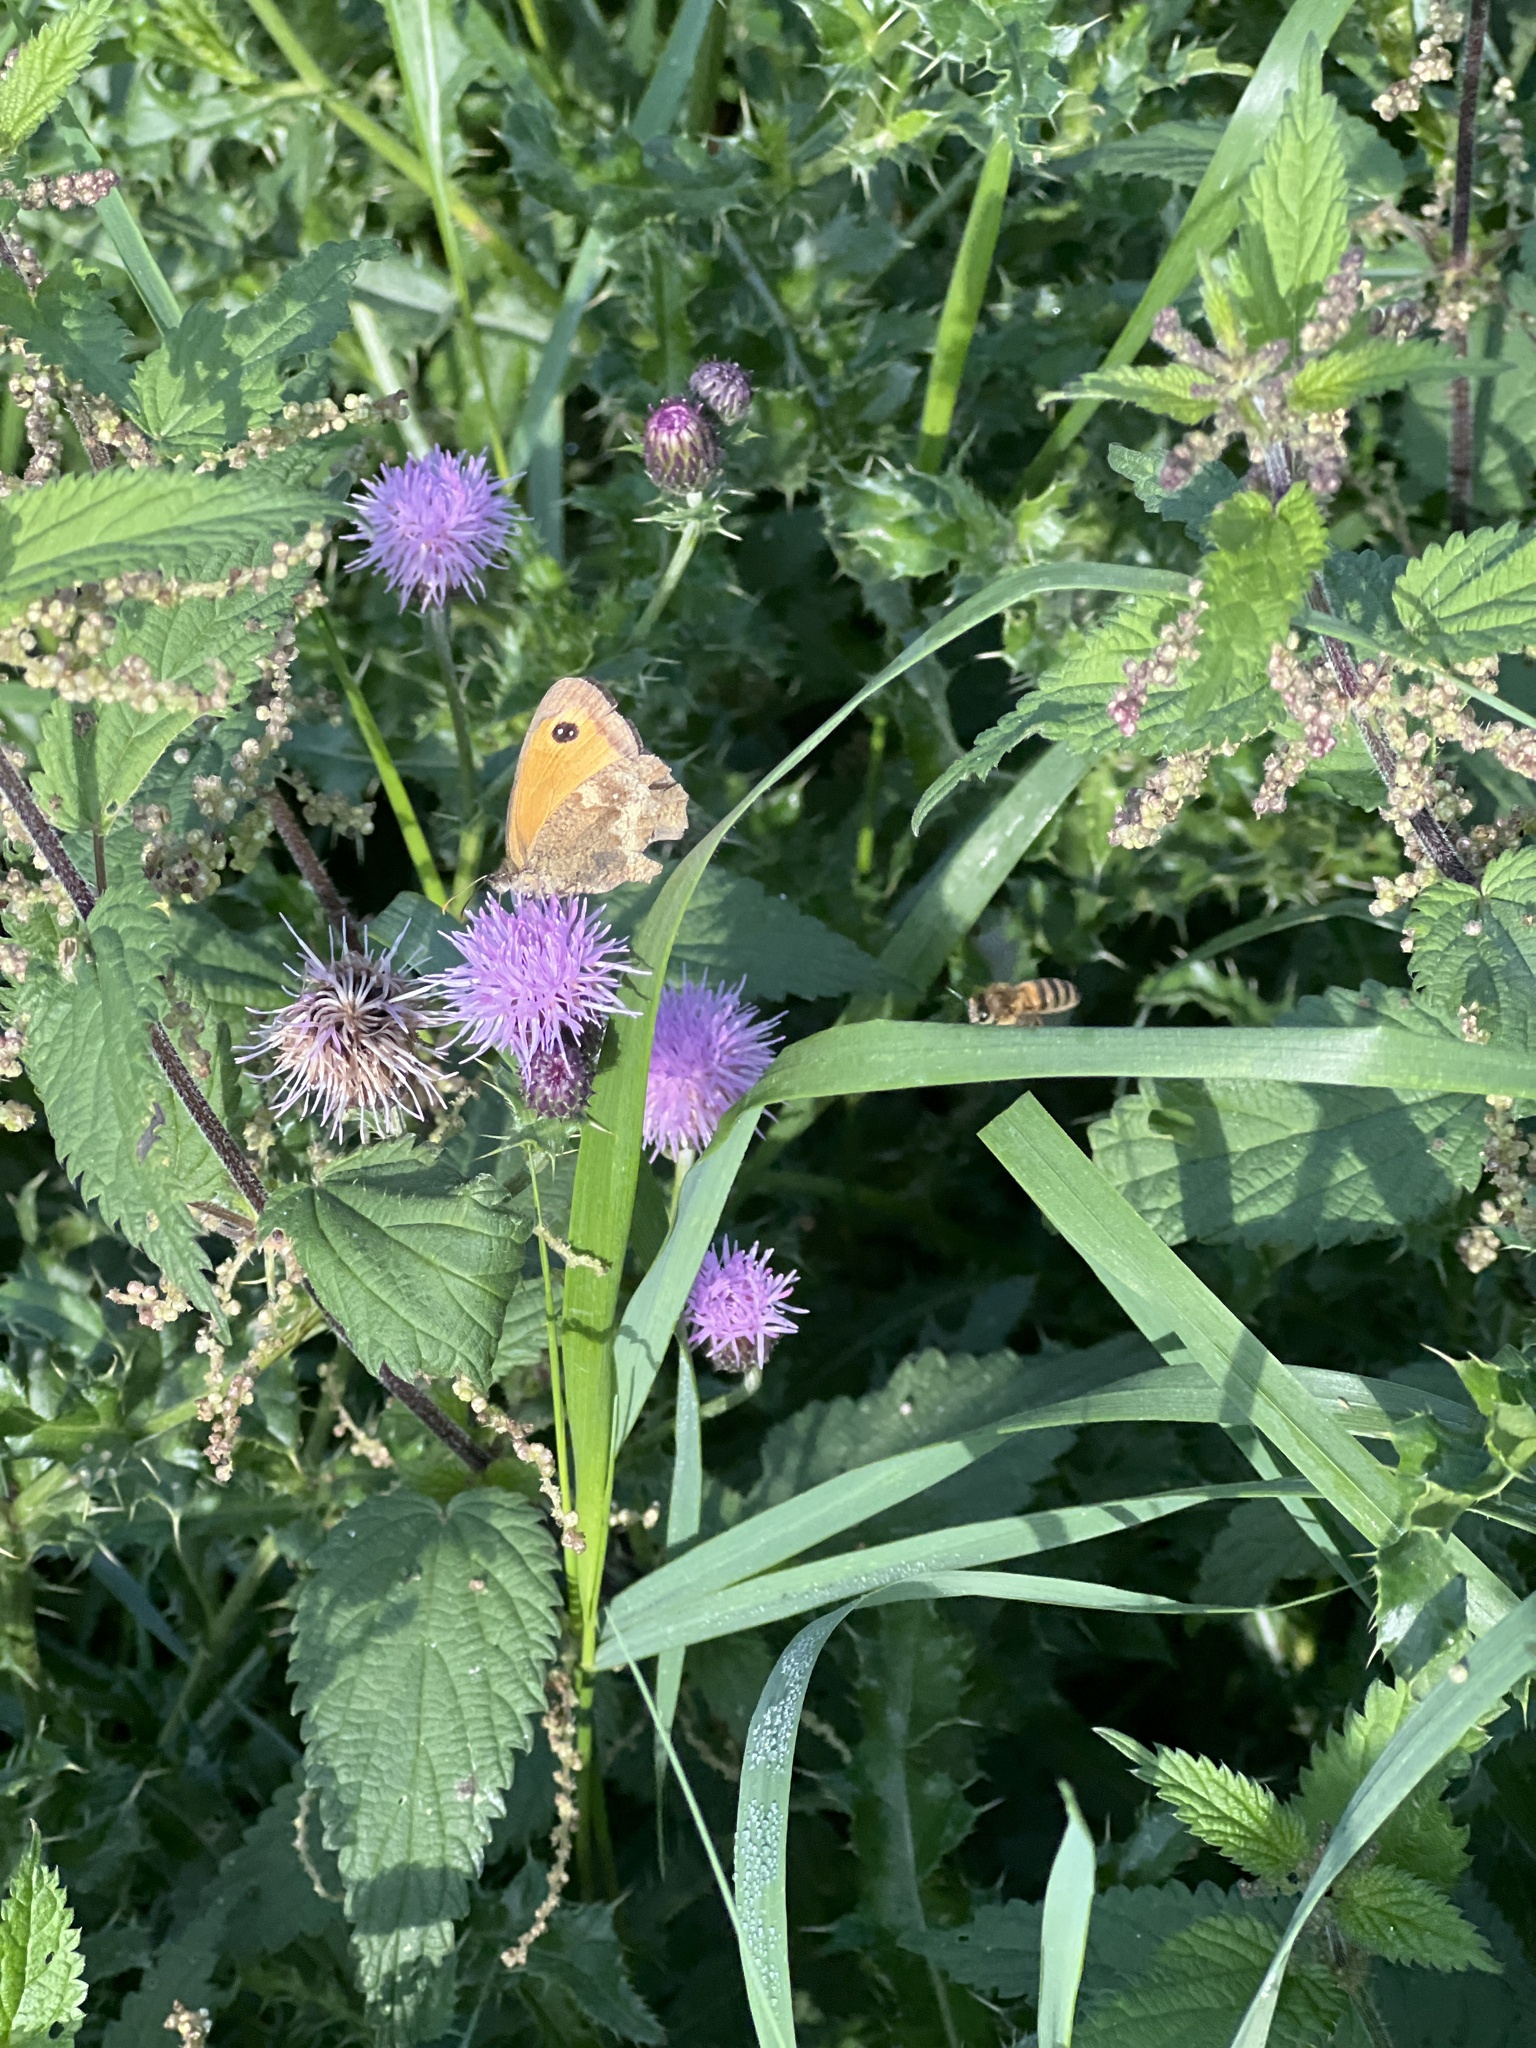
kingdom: Animalia
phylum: Arthropoda
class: Insecta
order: Lepidoptera
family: Nymphalidae
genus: Pyronia
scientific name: Pyronia tithonus
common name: Gatekeeper
